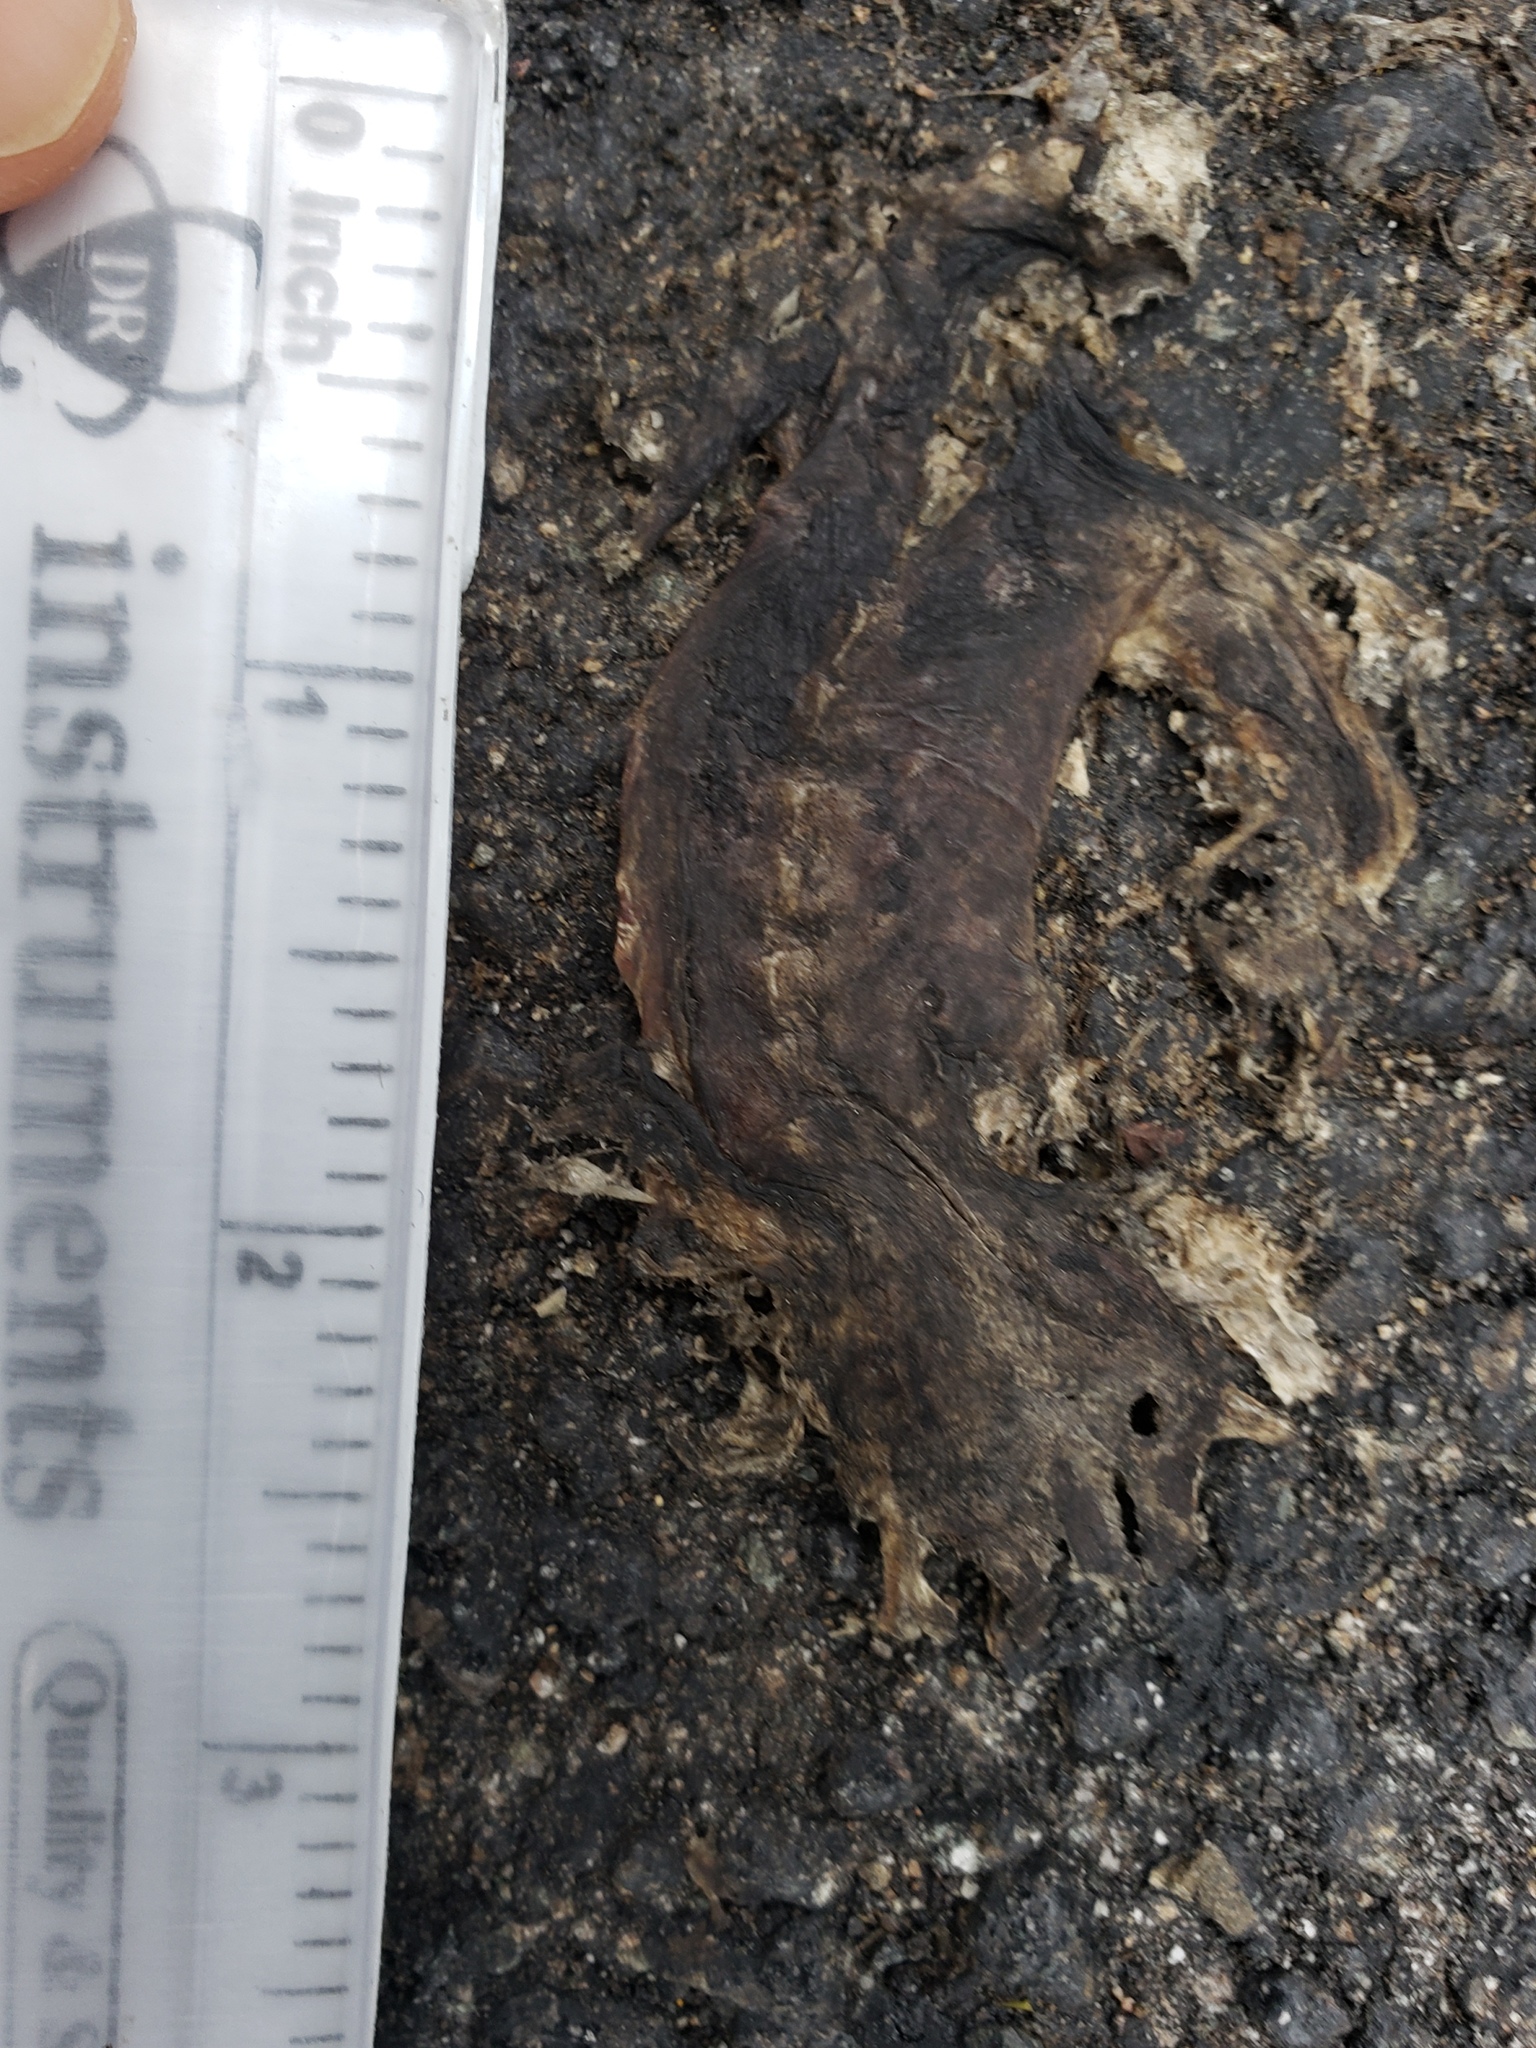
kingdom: Animalia
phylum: Chordata
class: Amphibia
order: Caudata
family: Salamandridae
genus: Taricha
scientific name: Taricha
